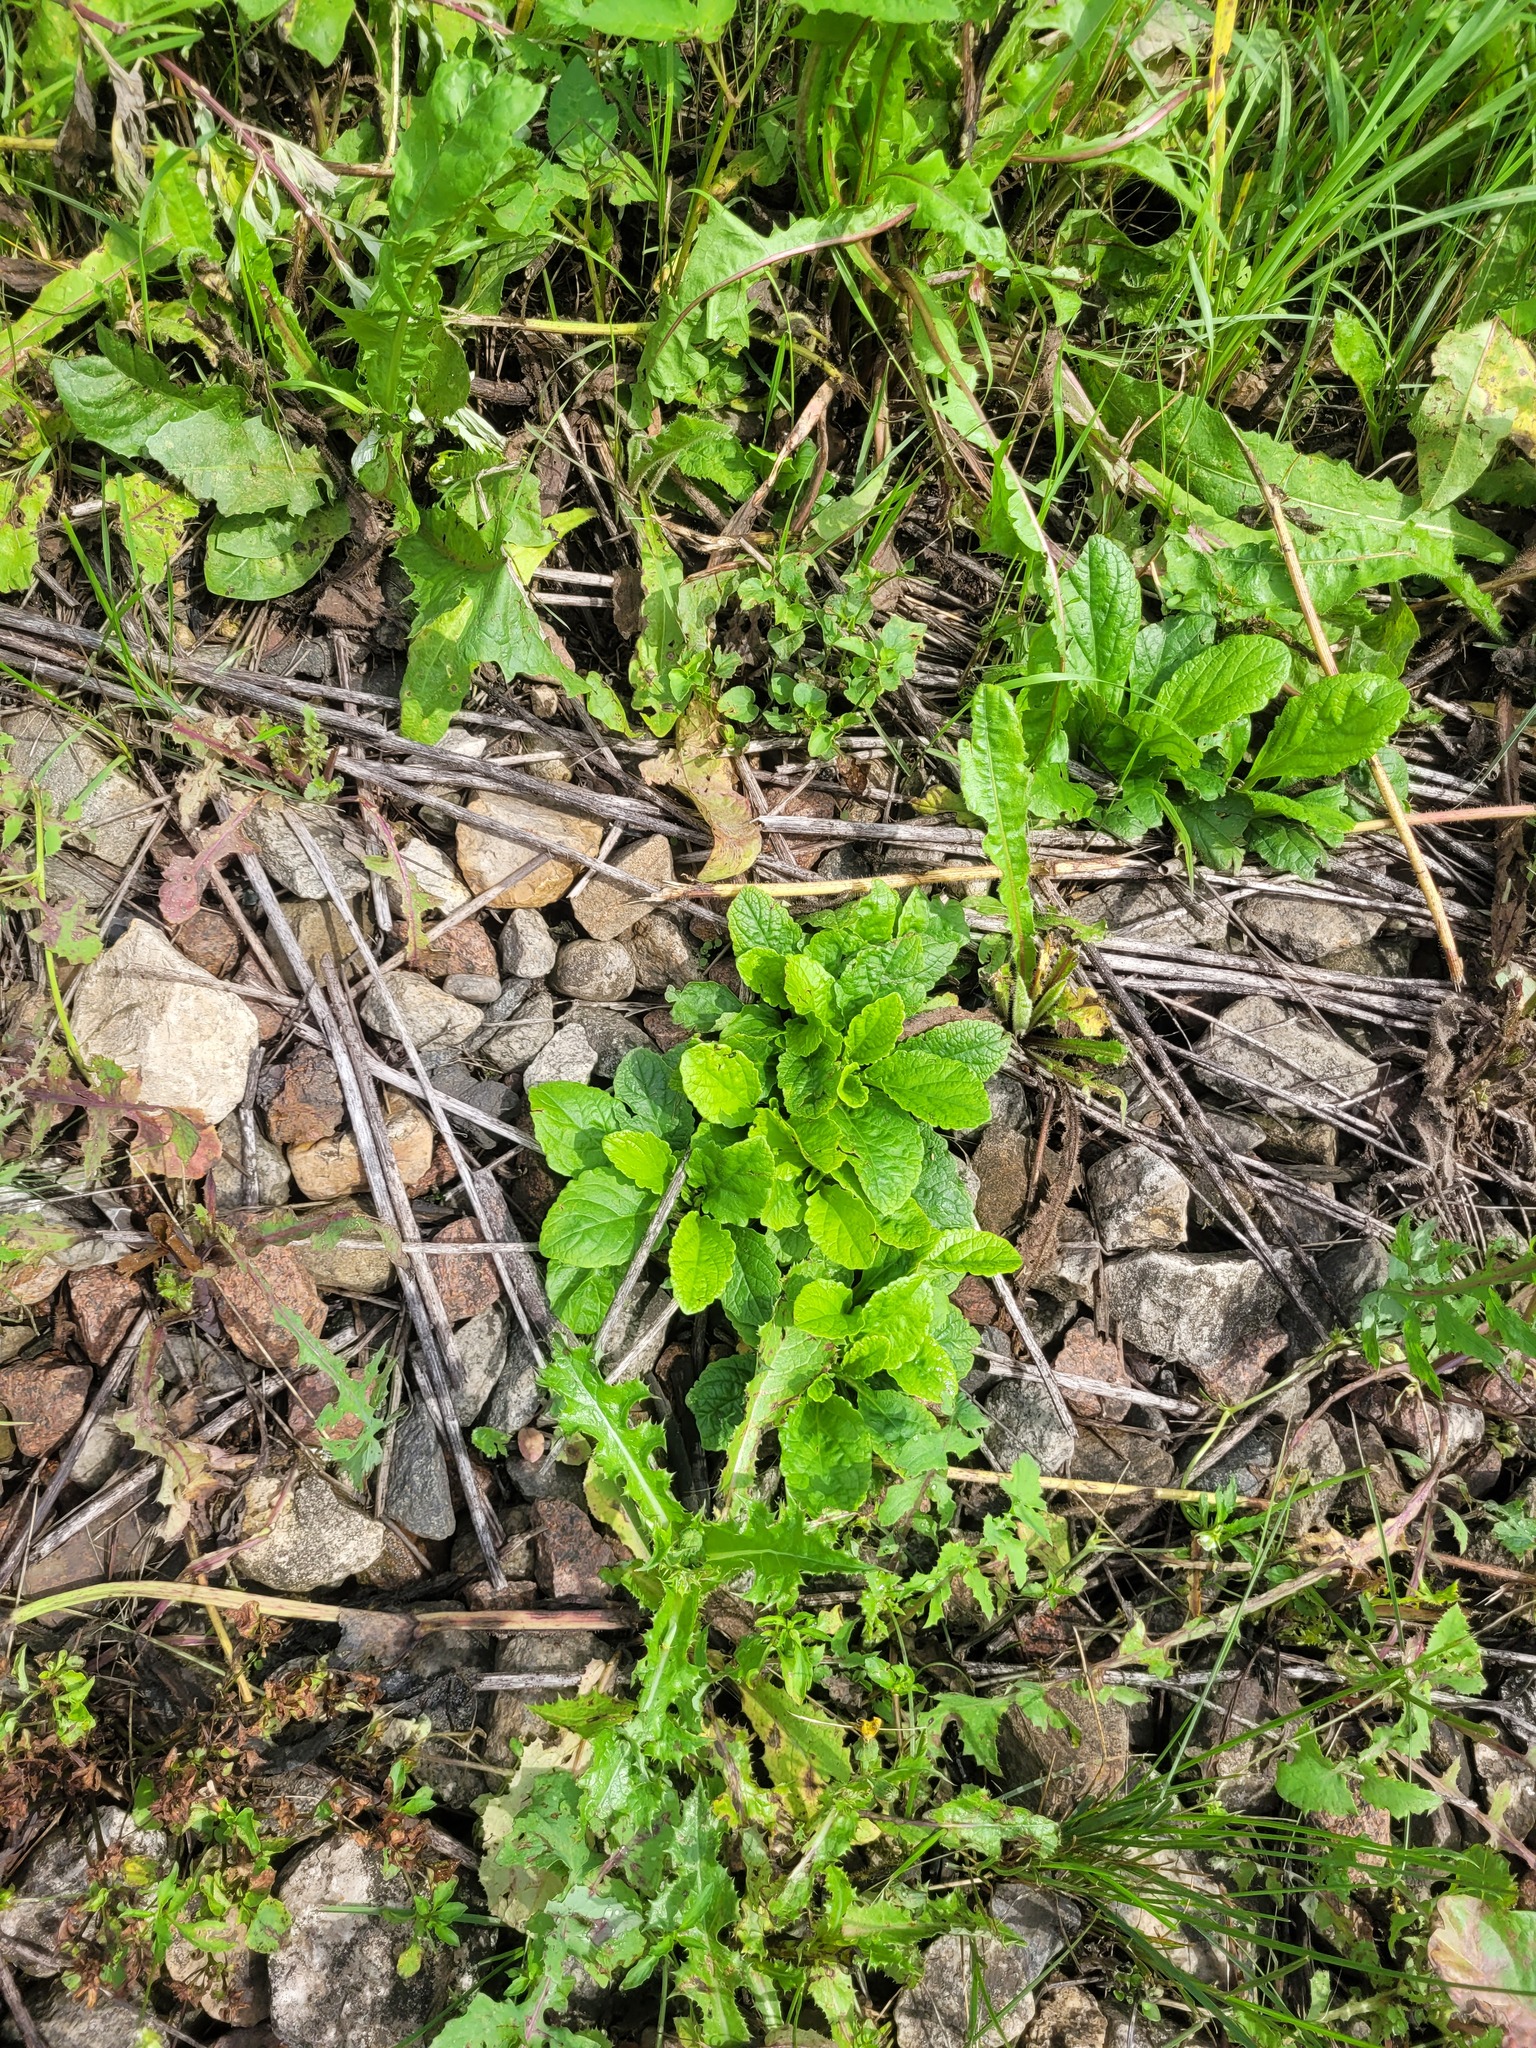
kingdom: Plantae
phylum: Tracheophyta
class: Magnoliopsida
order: Lamiales
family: Lamiaceae
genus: Ajuga
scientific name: Ajuga reptans
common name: Bugle
